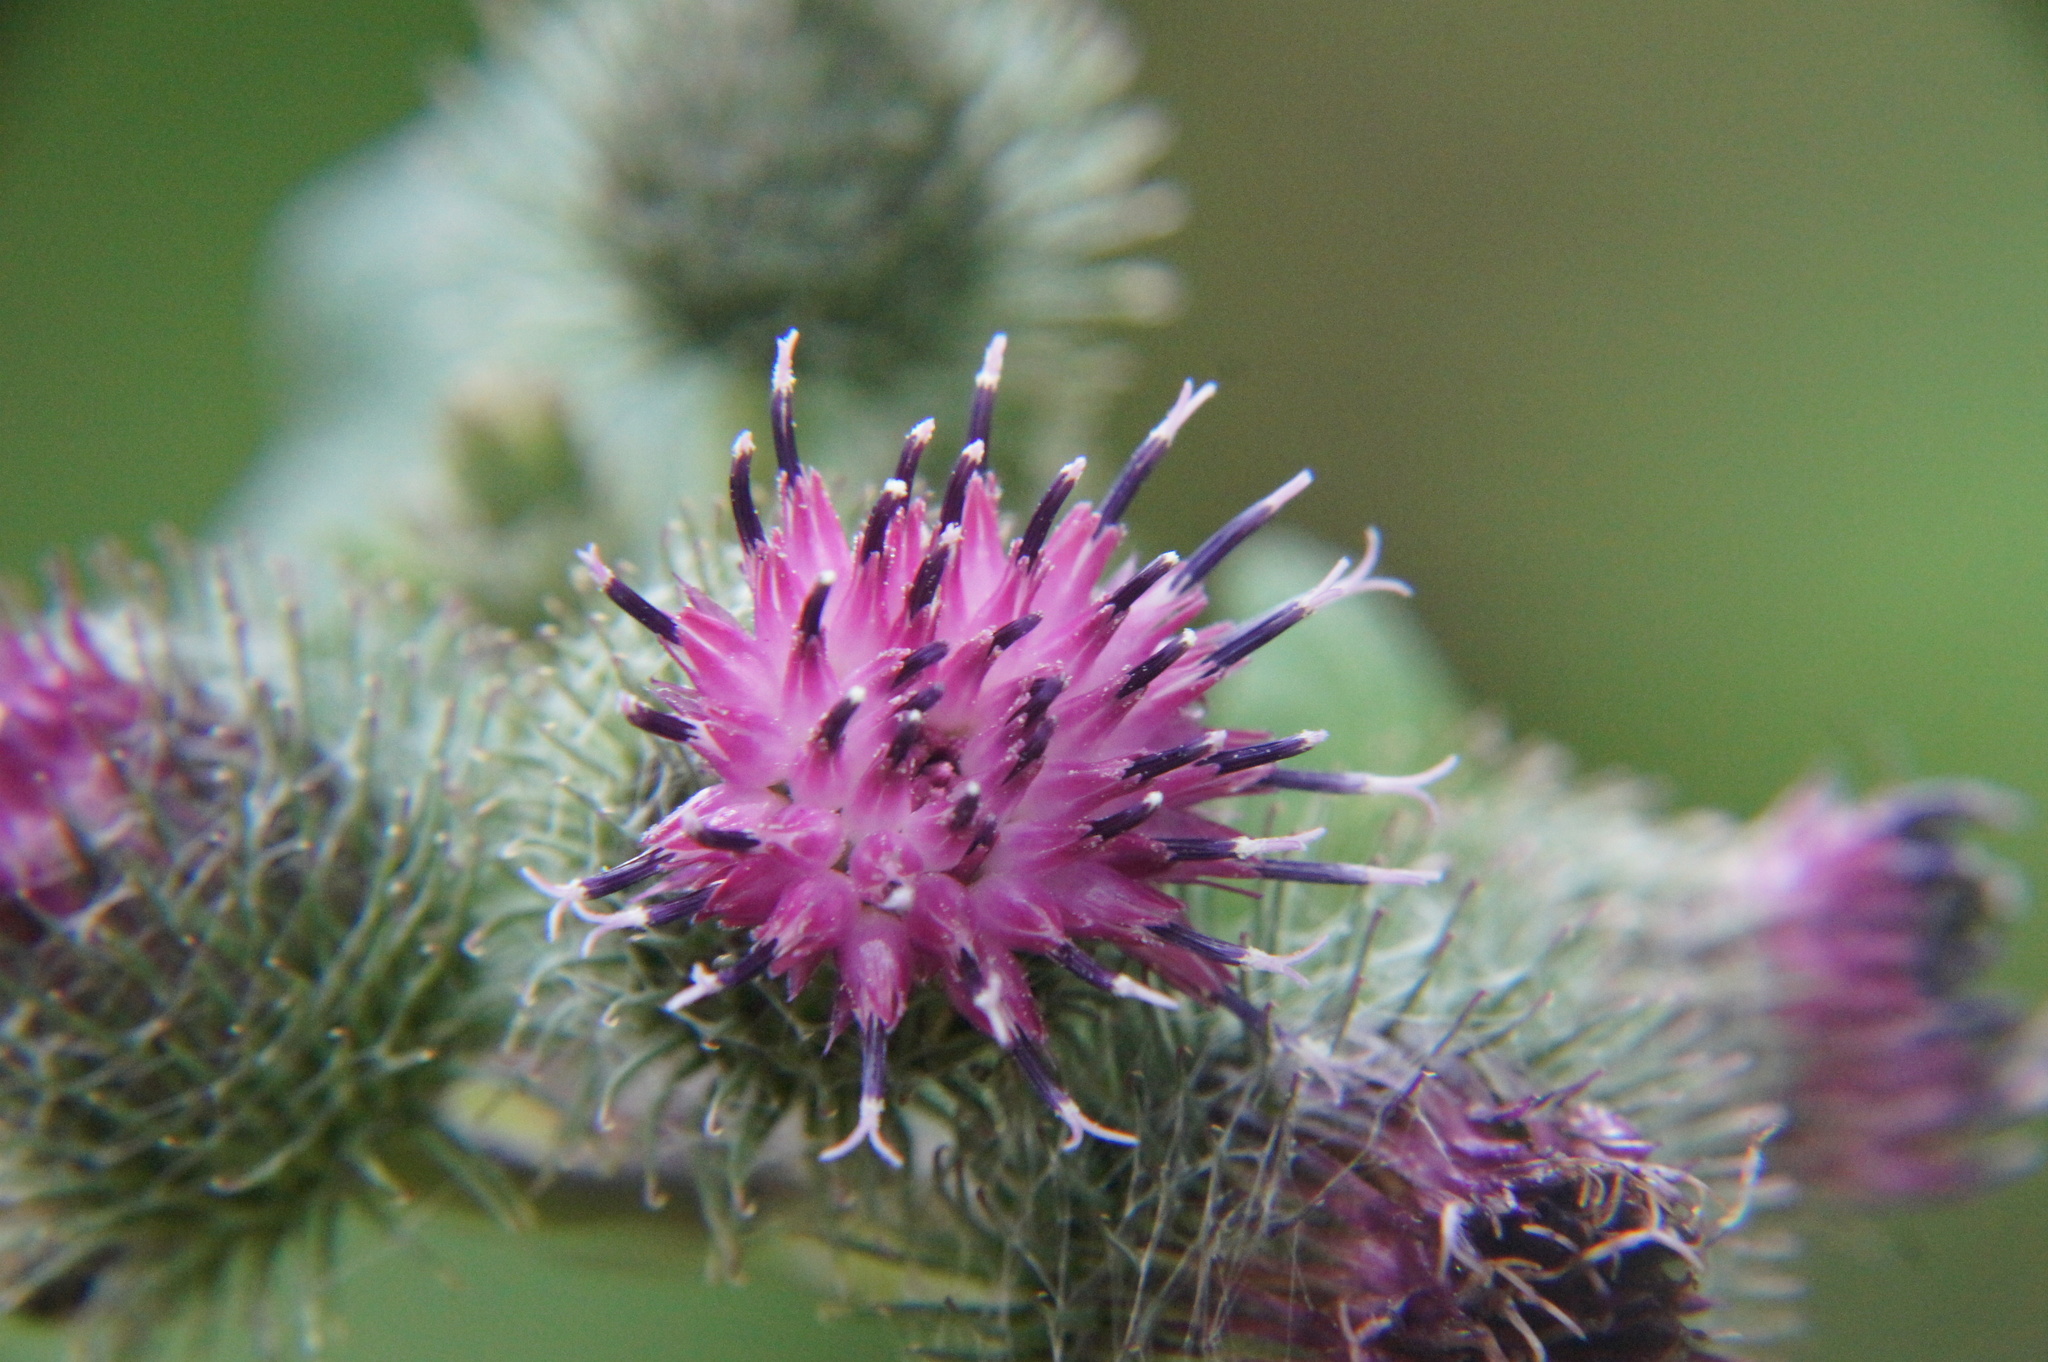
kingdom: Plantae
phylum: Tracheophyta
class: Magnoliopsida
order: Asterales
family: Asteraceae
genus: Arctium
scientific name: Arctium tomentosum
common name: Woolly burdock
